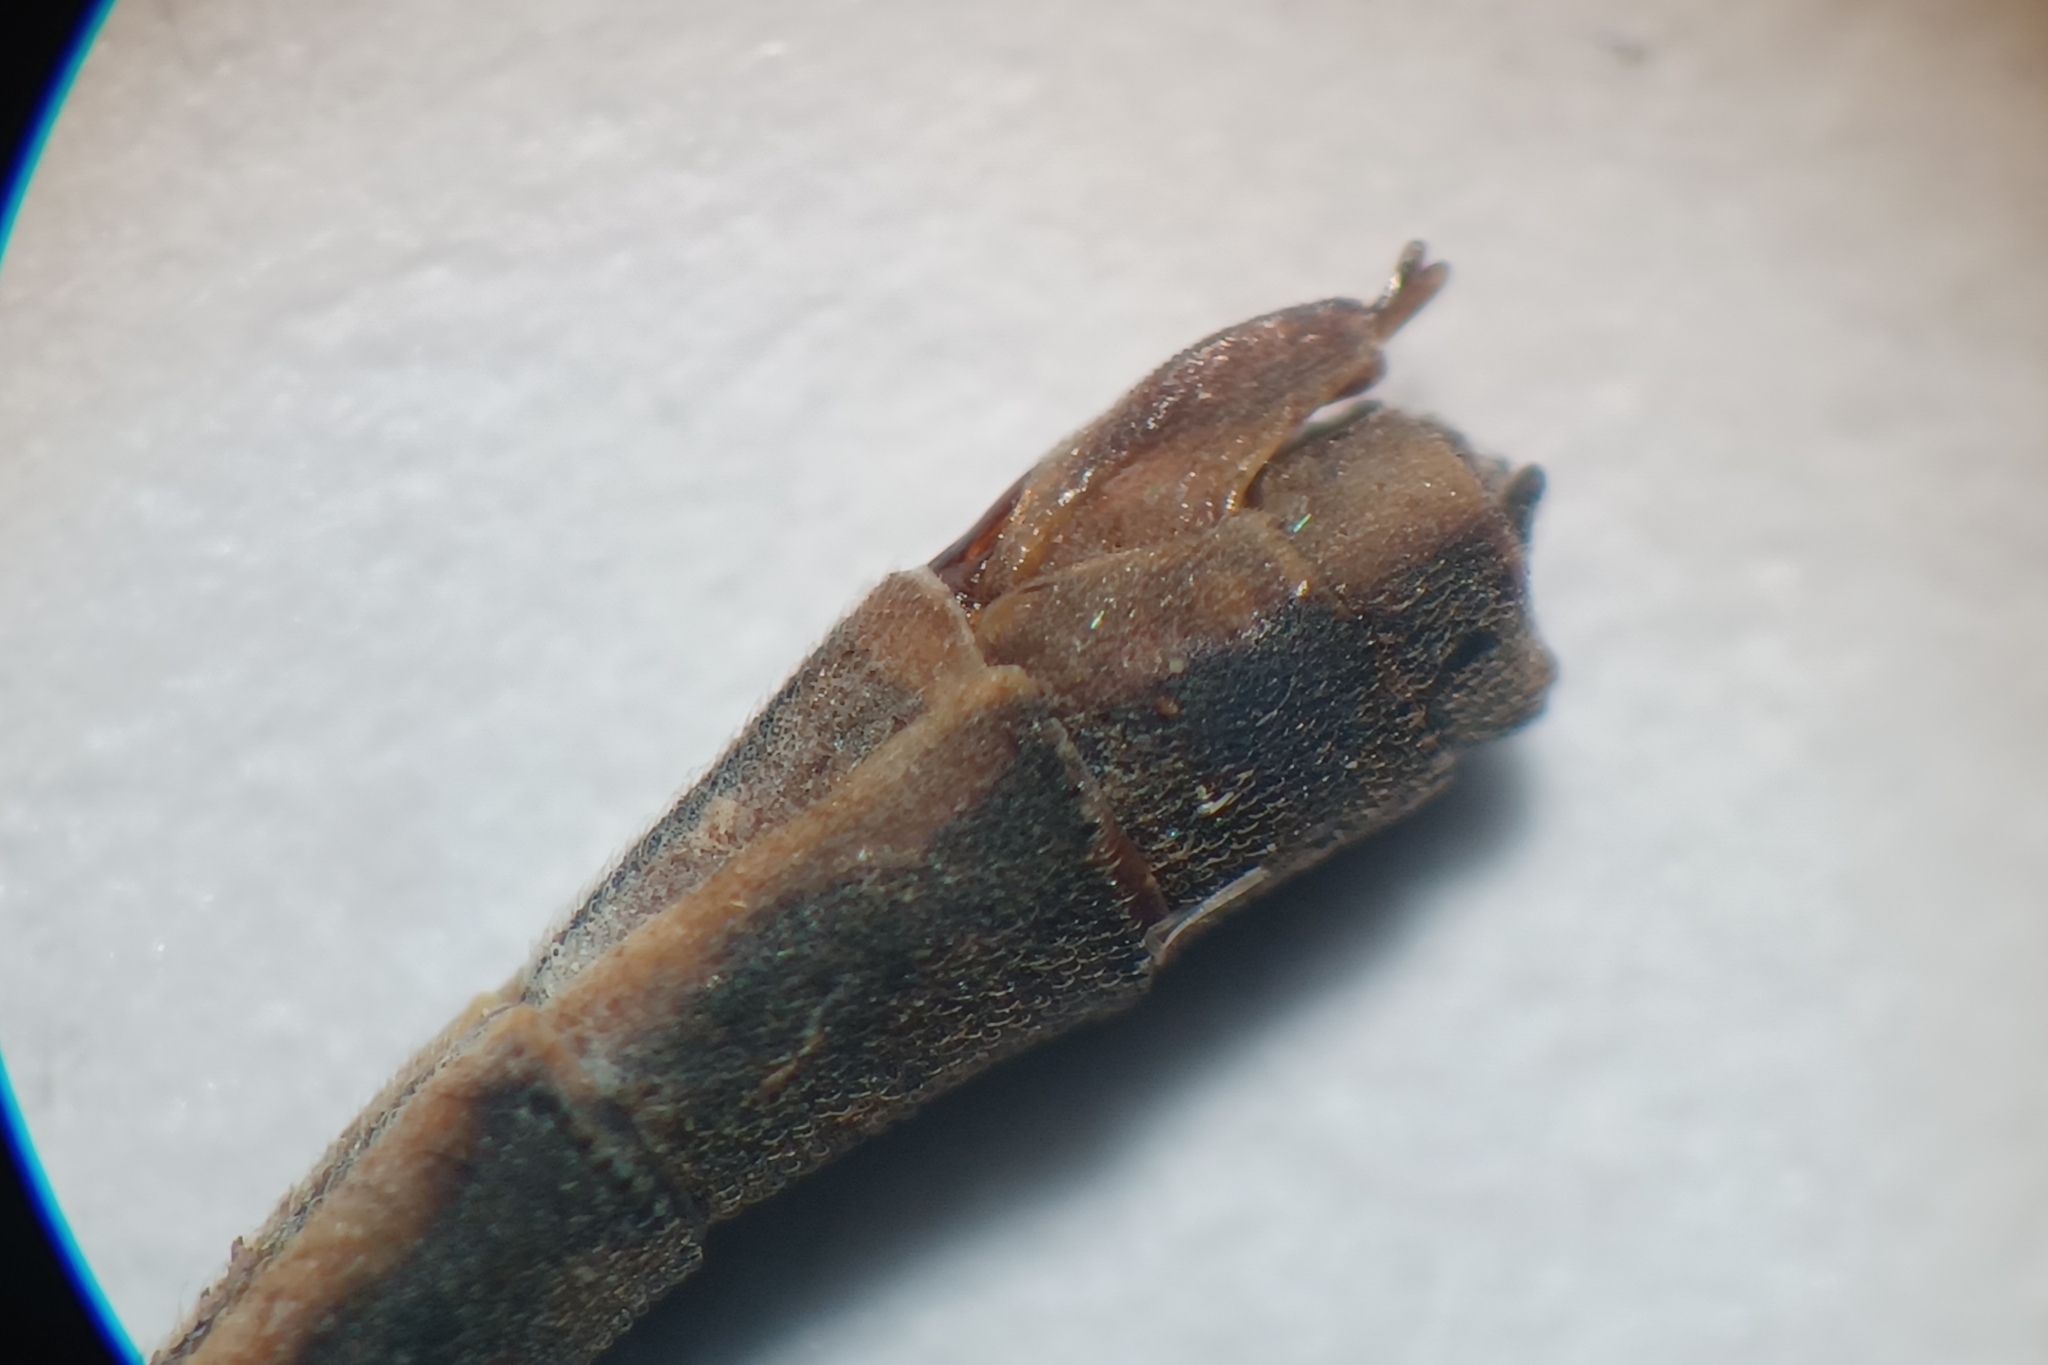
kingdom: Animalia
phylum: Arthropoda
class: Insecta
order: Odonata
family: Coenagrionidae
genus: Ischnura
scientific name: Ischnura posita
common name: Fragile forktail
